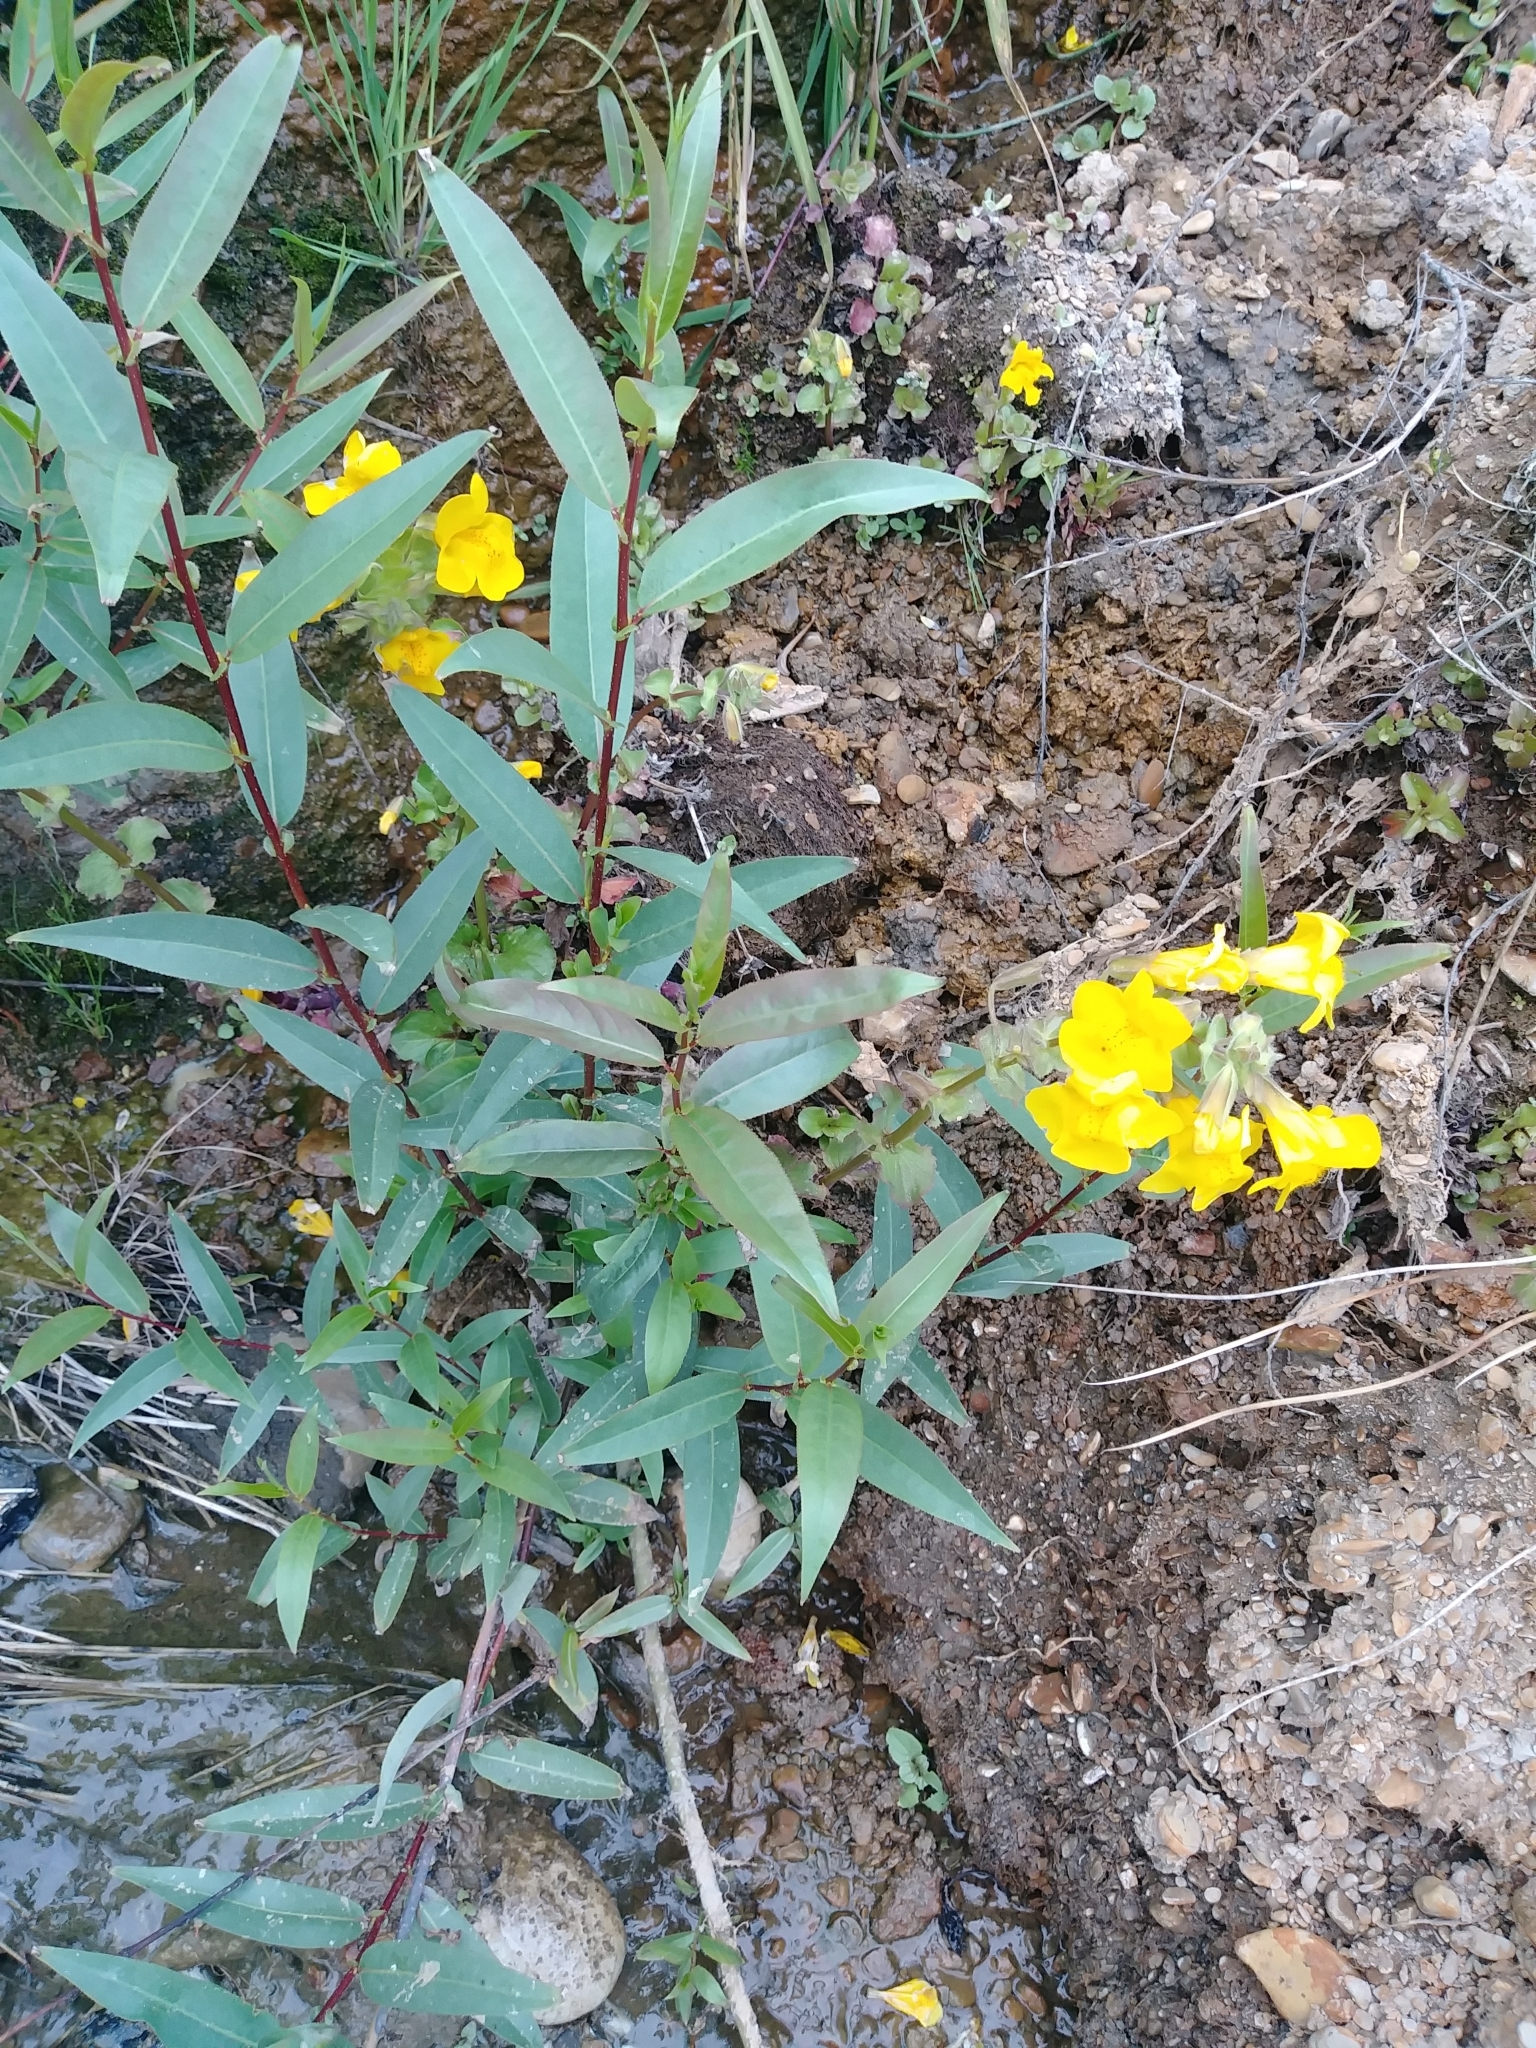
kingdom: Plantae
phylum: Tracheophyta
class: Magnoliopsida
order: Lamiales
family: Phrymaceae
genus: Erythranthe
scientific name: Erythranthe grandis
